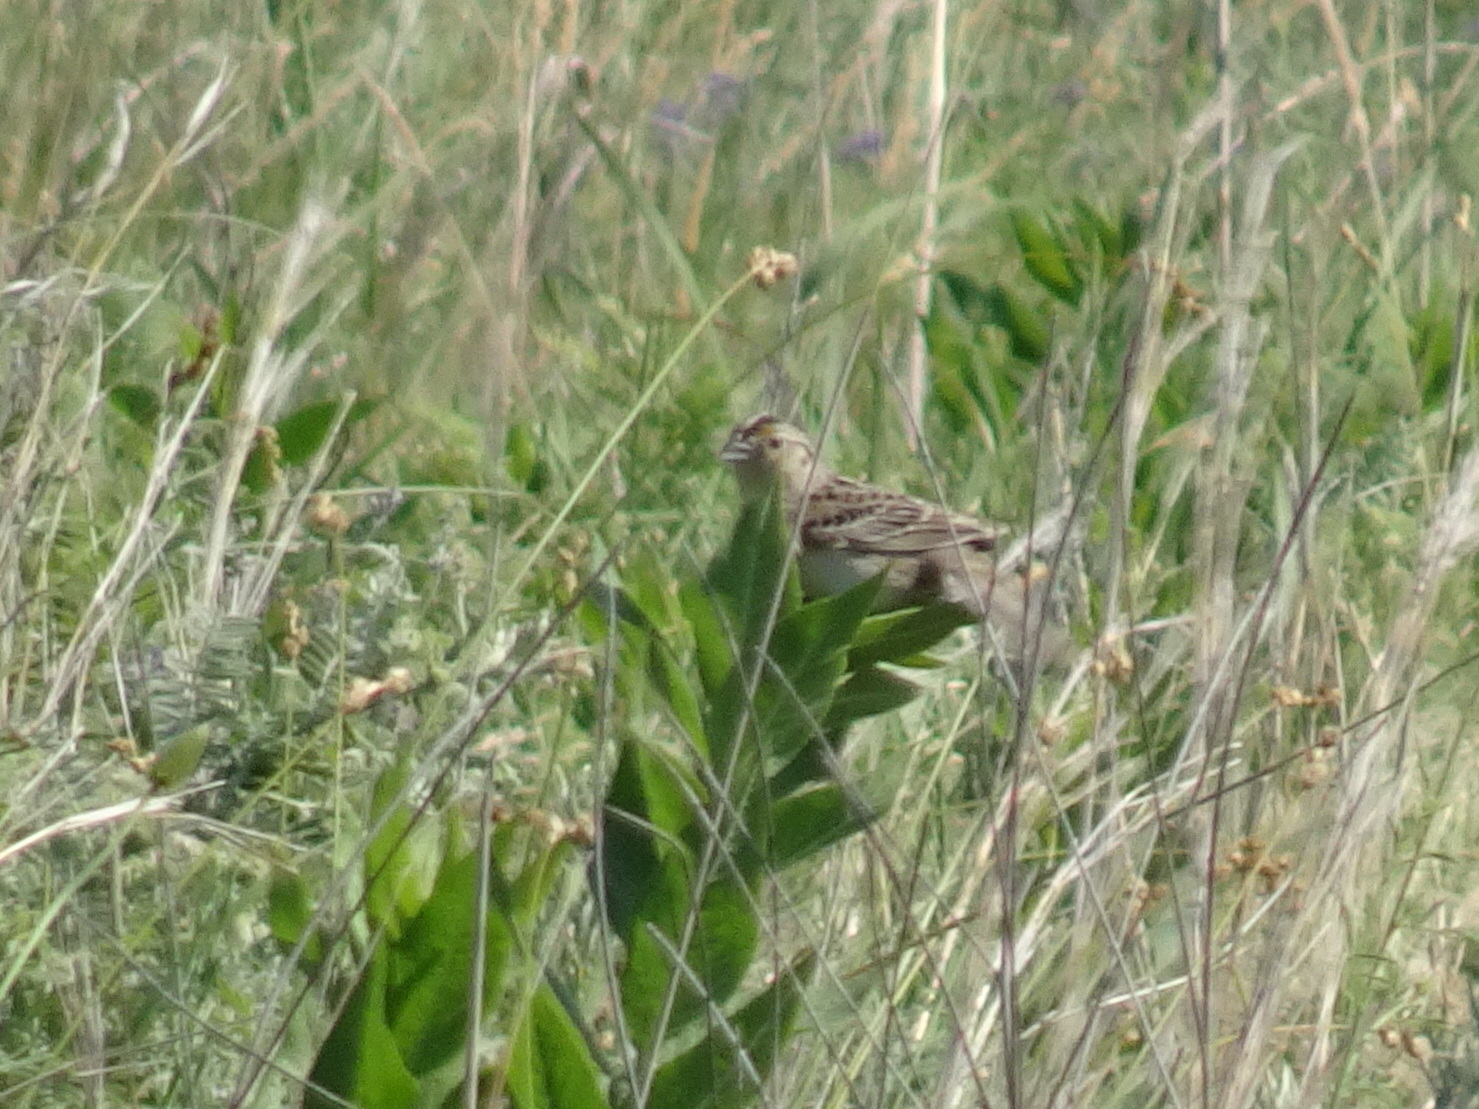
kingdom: Animalia
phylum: Chordata
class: Aves
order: Passeriformes
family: Passerellidae
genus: Ammodramus
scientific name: Ammodramus savannarum
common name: Grasshopper sparrow
